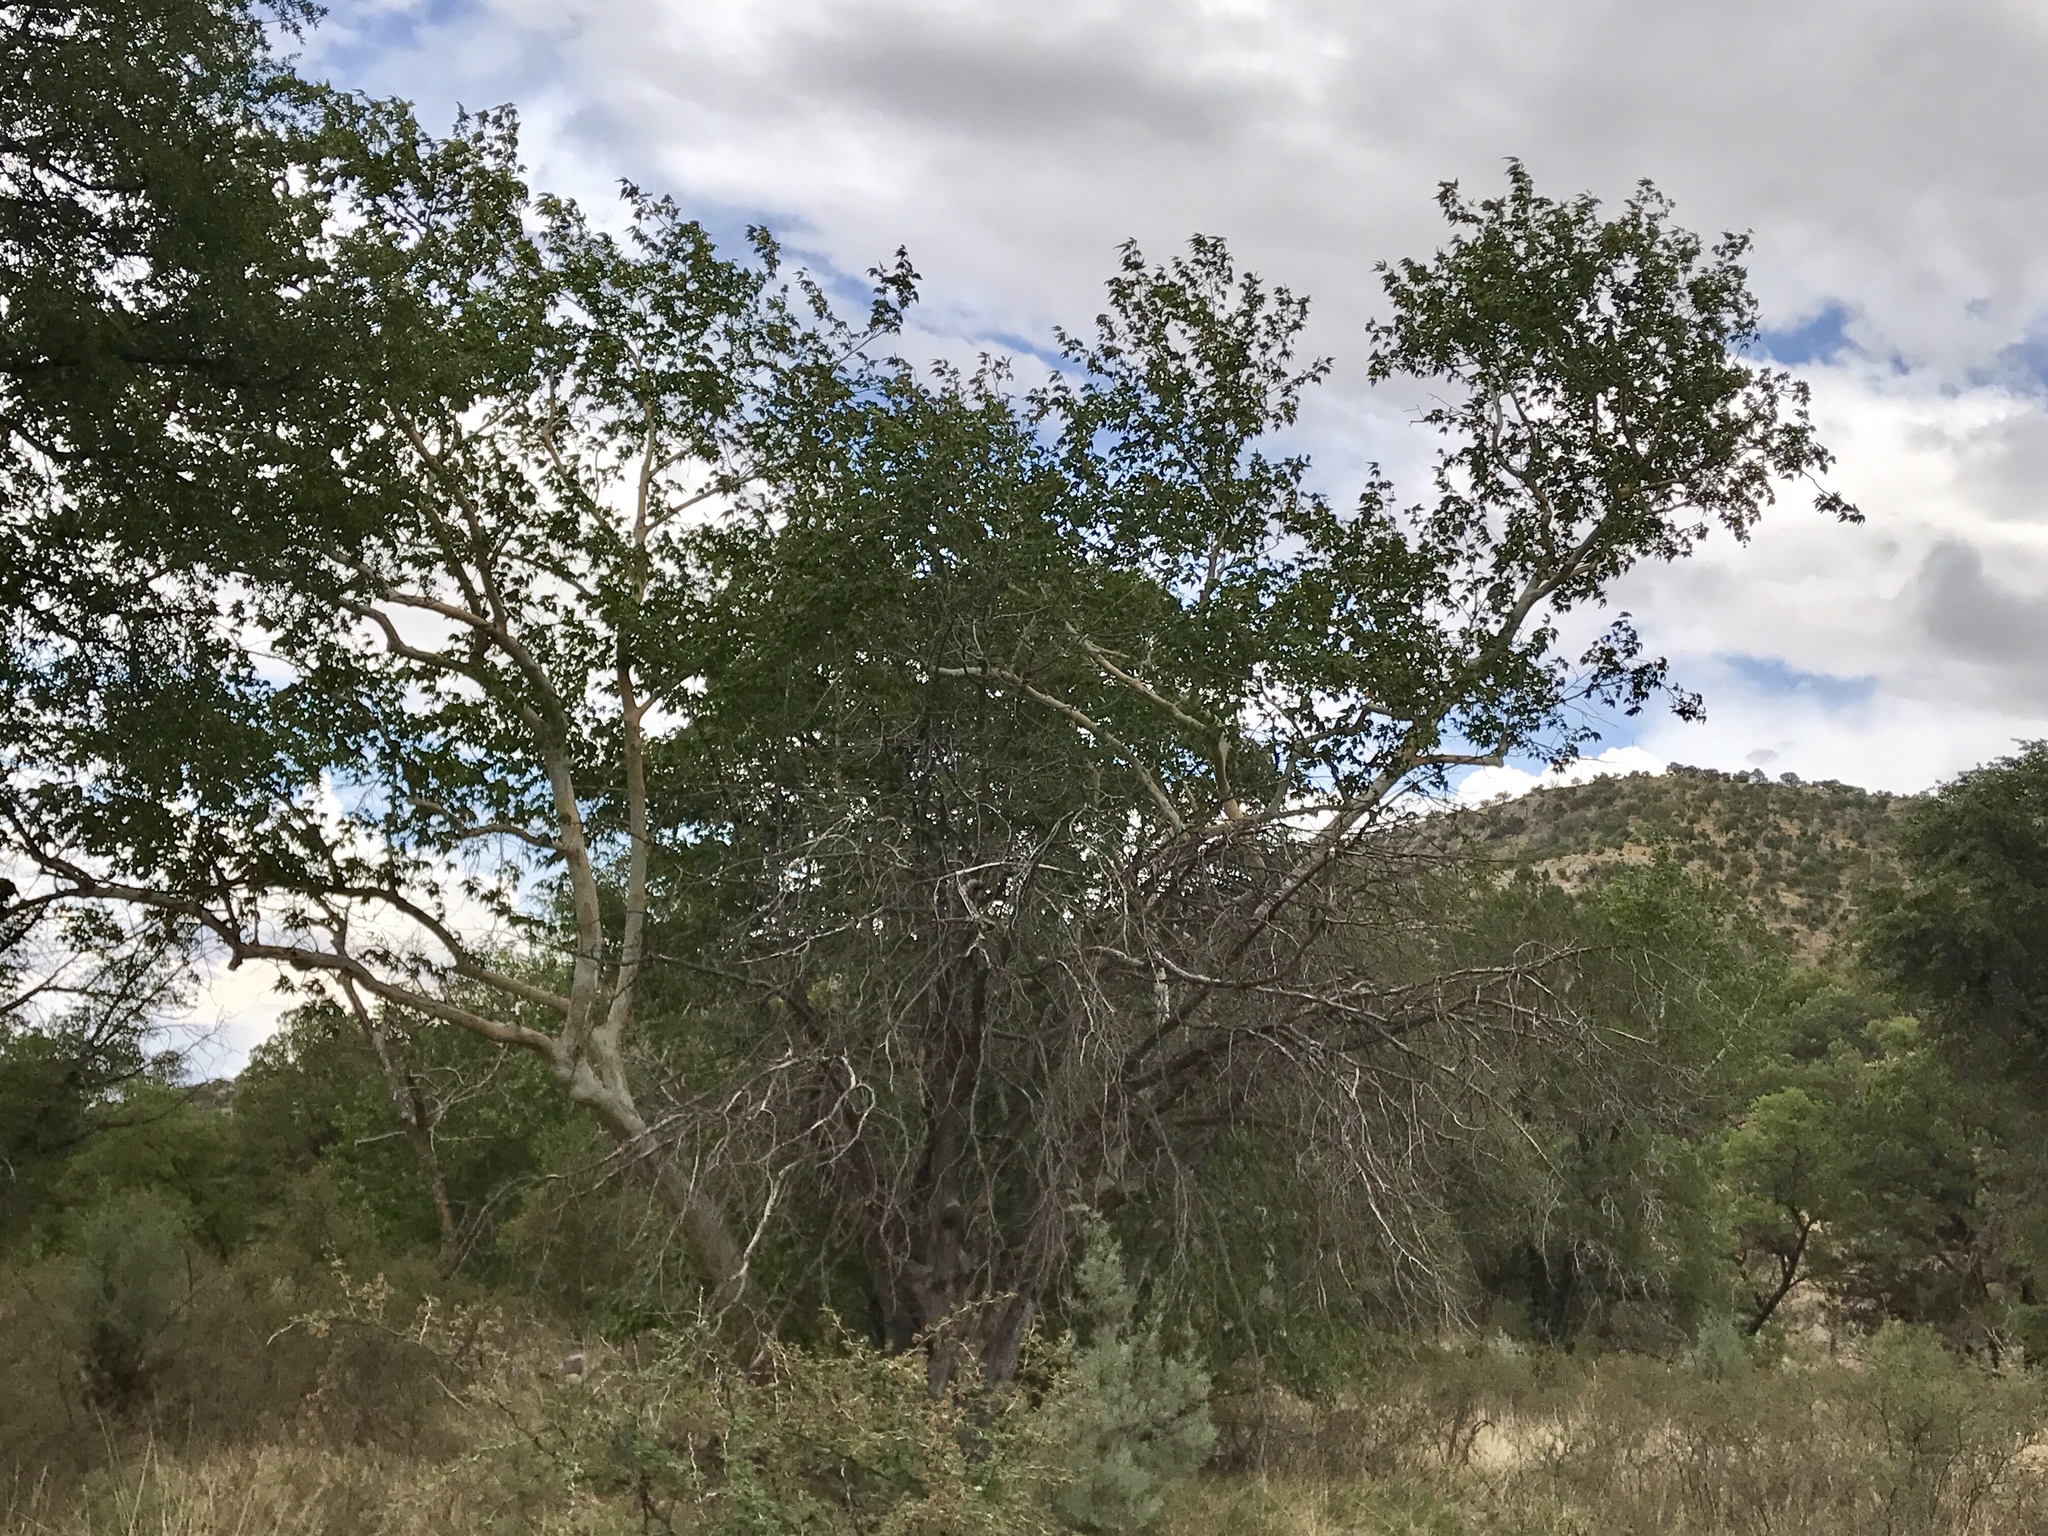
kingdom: Plantae
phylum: Tracheophyta
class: Magnoliopsida
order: Proteales
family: Platanaceae
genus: Platanus
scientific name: Platanus wrightii
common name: Arizona sycamore
